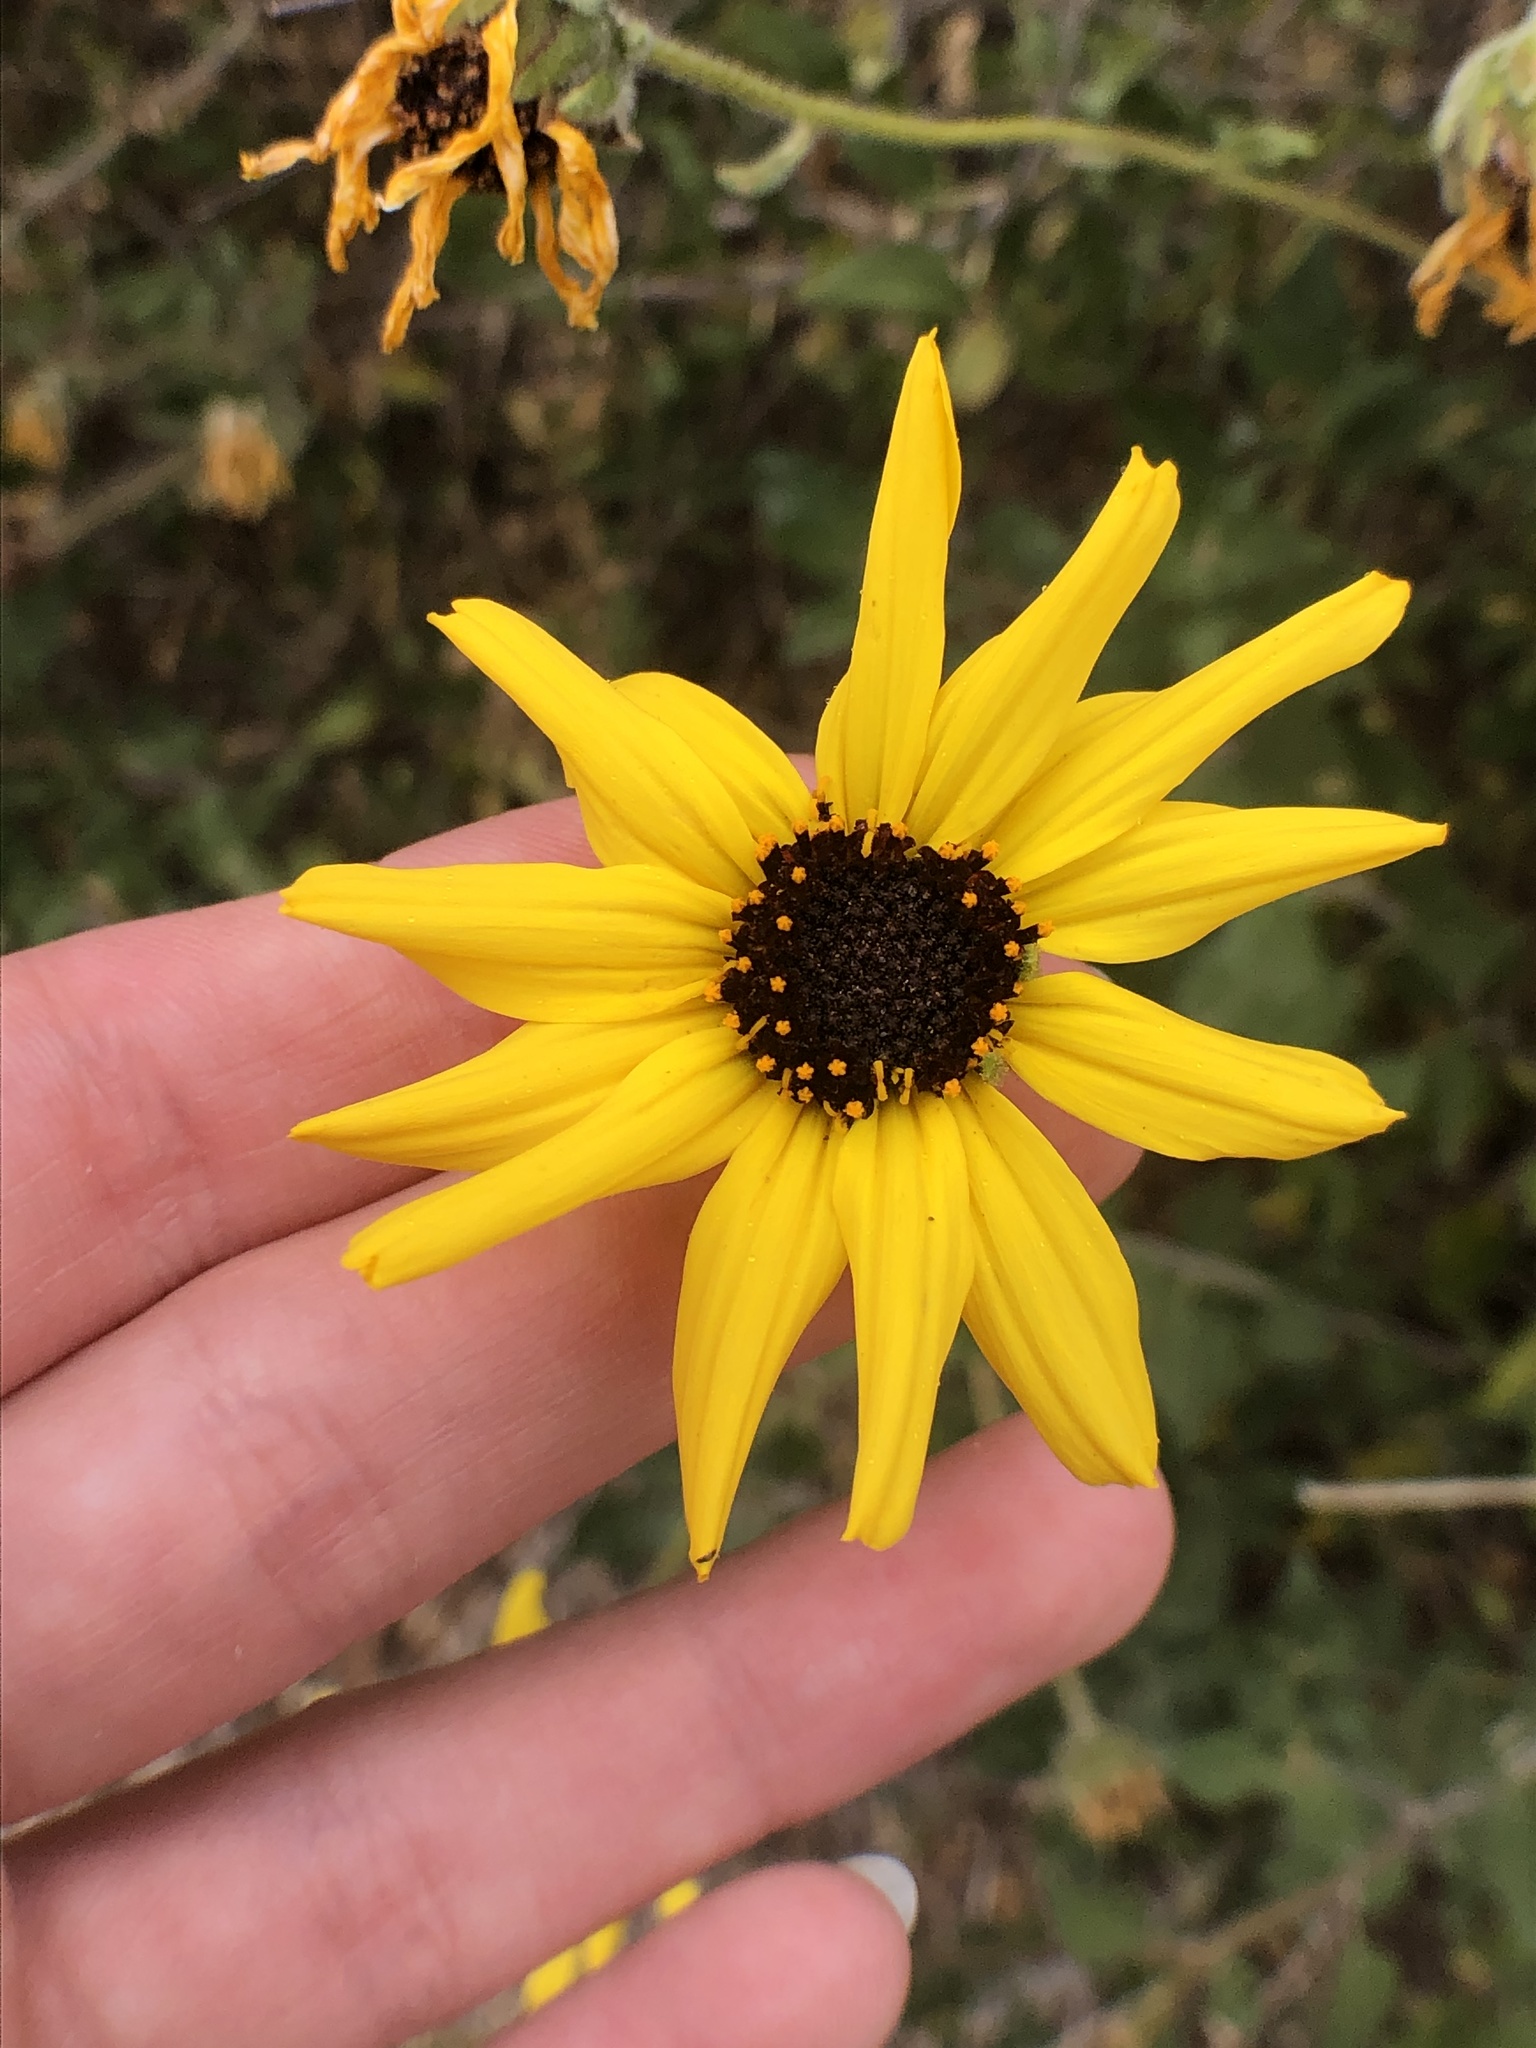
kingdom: Plantae
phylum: Tracheophyta
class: Magnoliopsida
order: Asterales
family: Asteraceae
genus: Encelia
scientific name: Encelia californica
